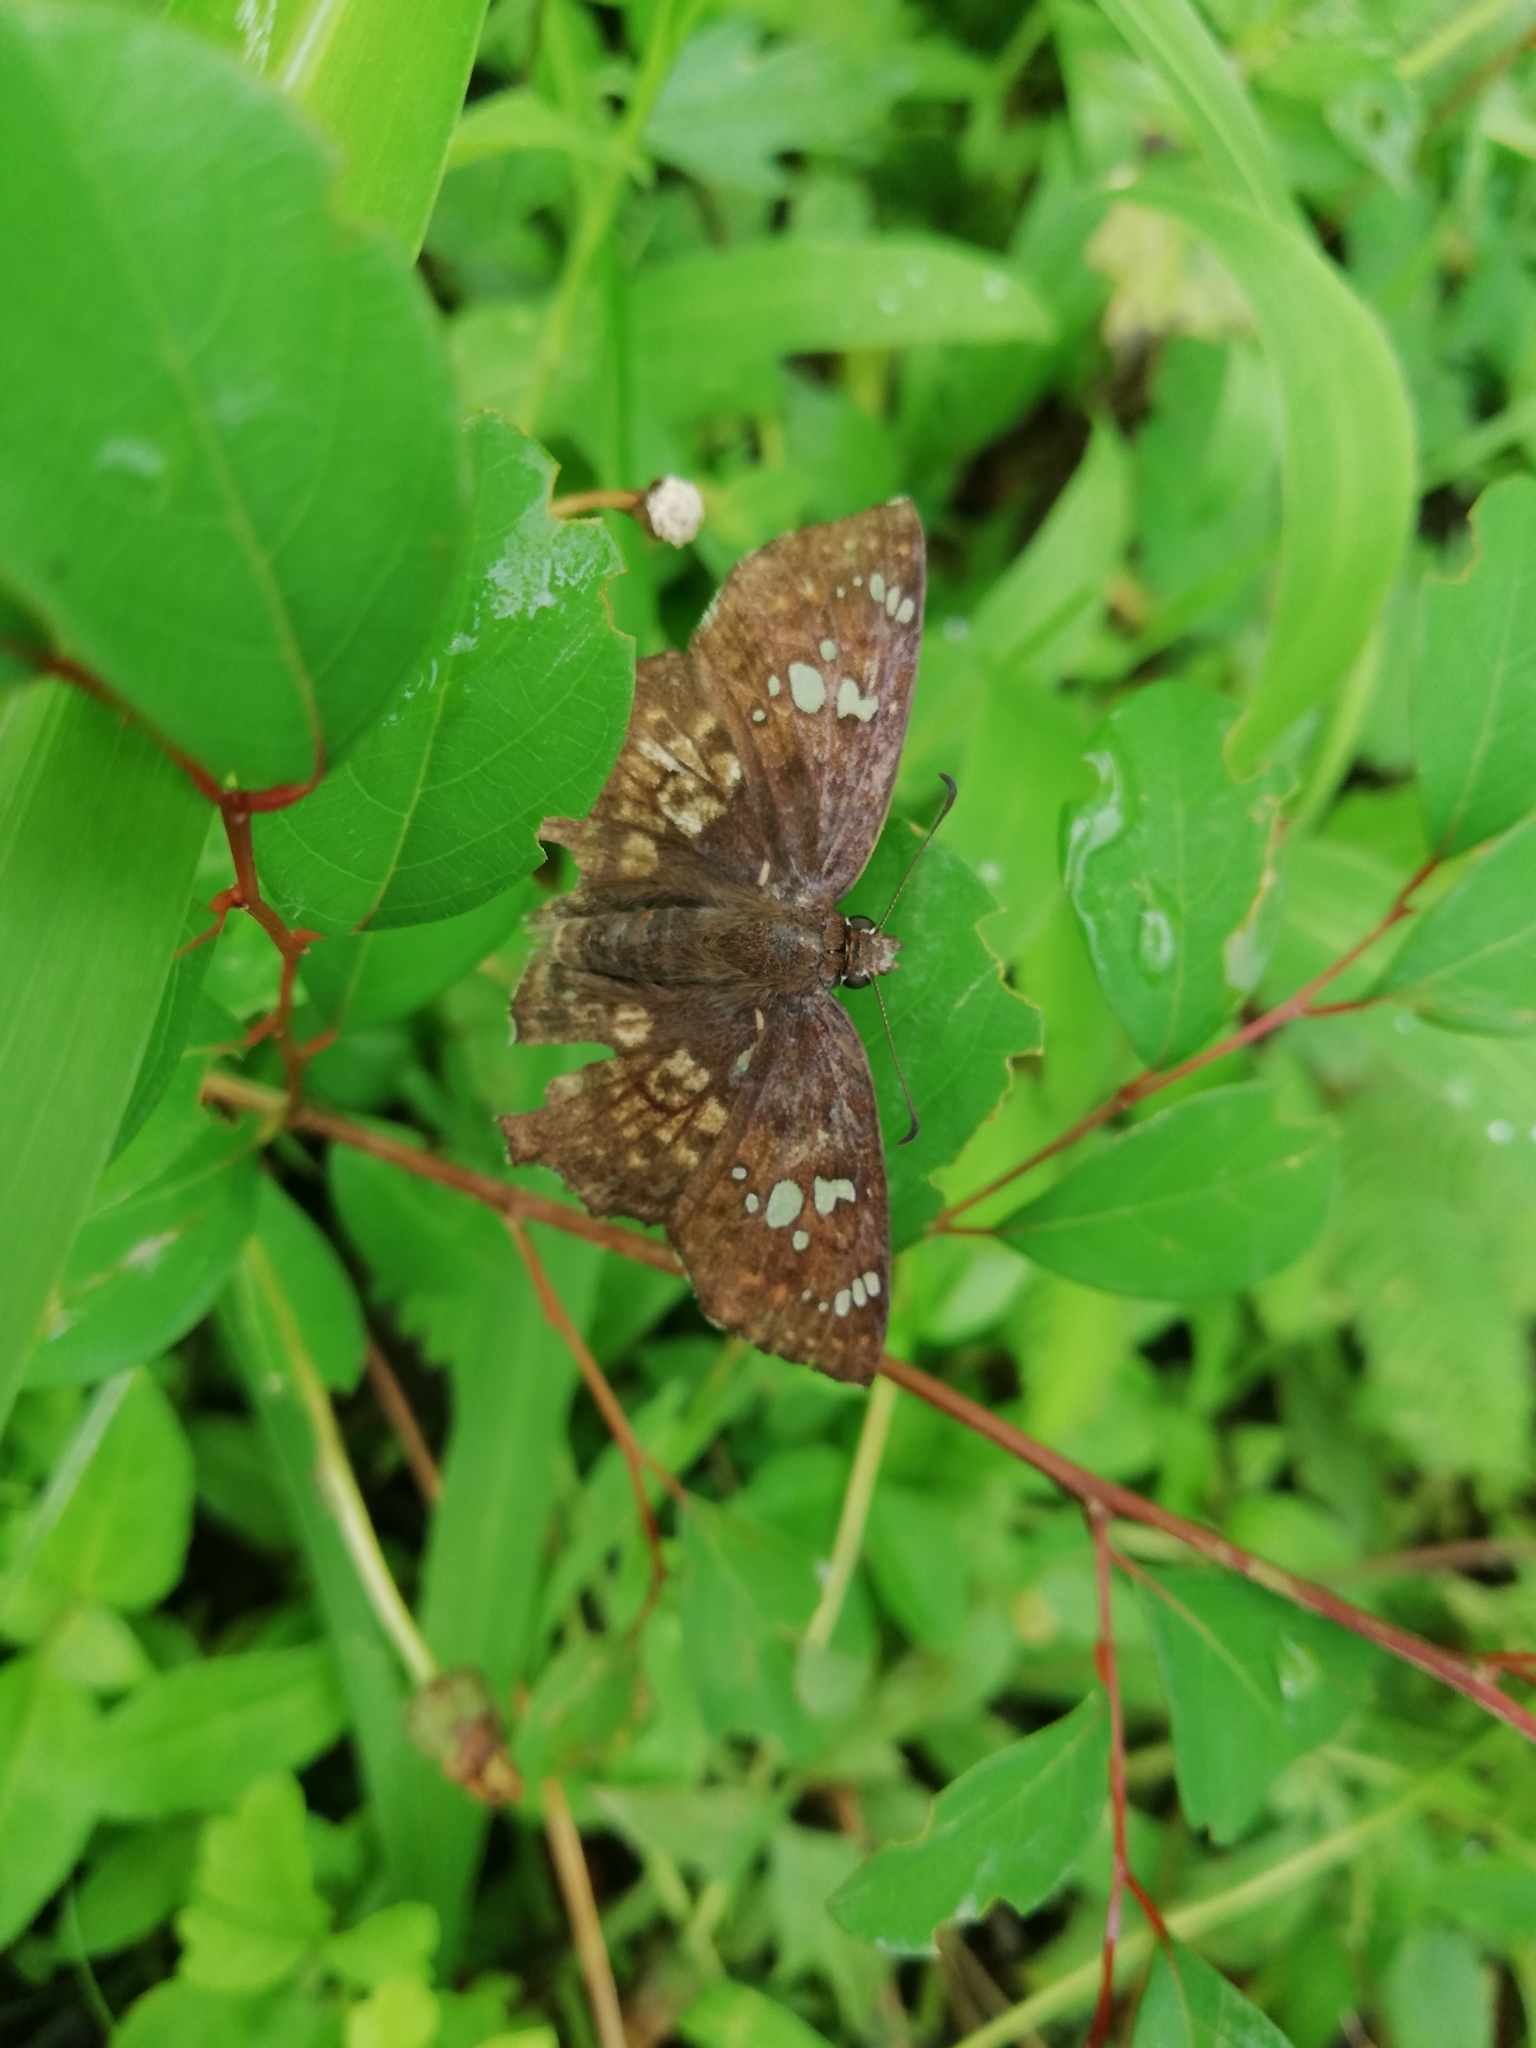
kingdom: Animalia
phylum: Arthropoda
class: Insecta
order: Lepidoptera
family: Hesperiidae
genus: Caprona
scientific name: Caprona ransonnettii
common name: Golden angle
